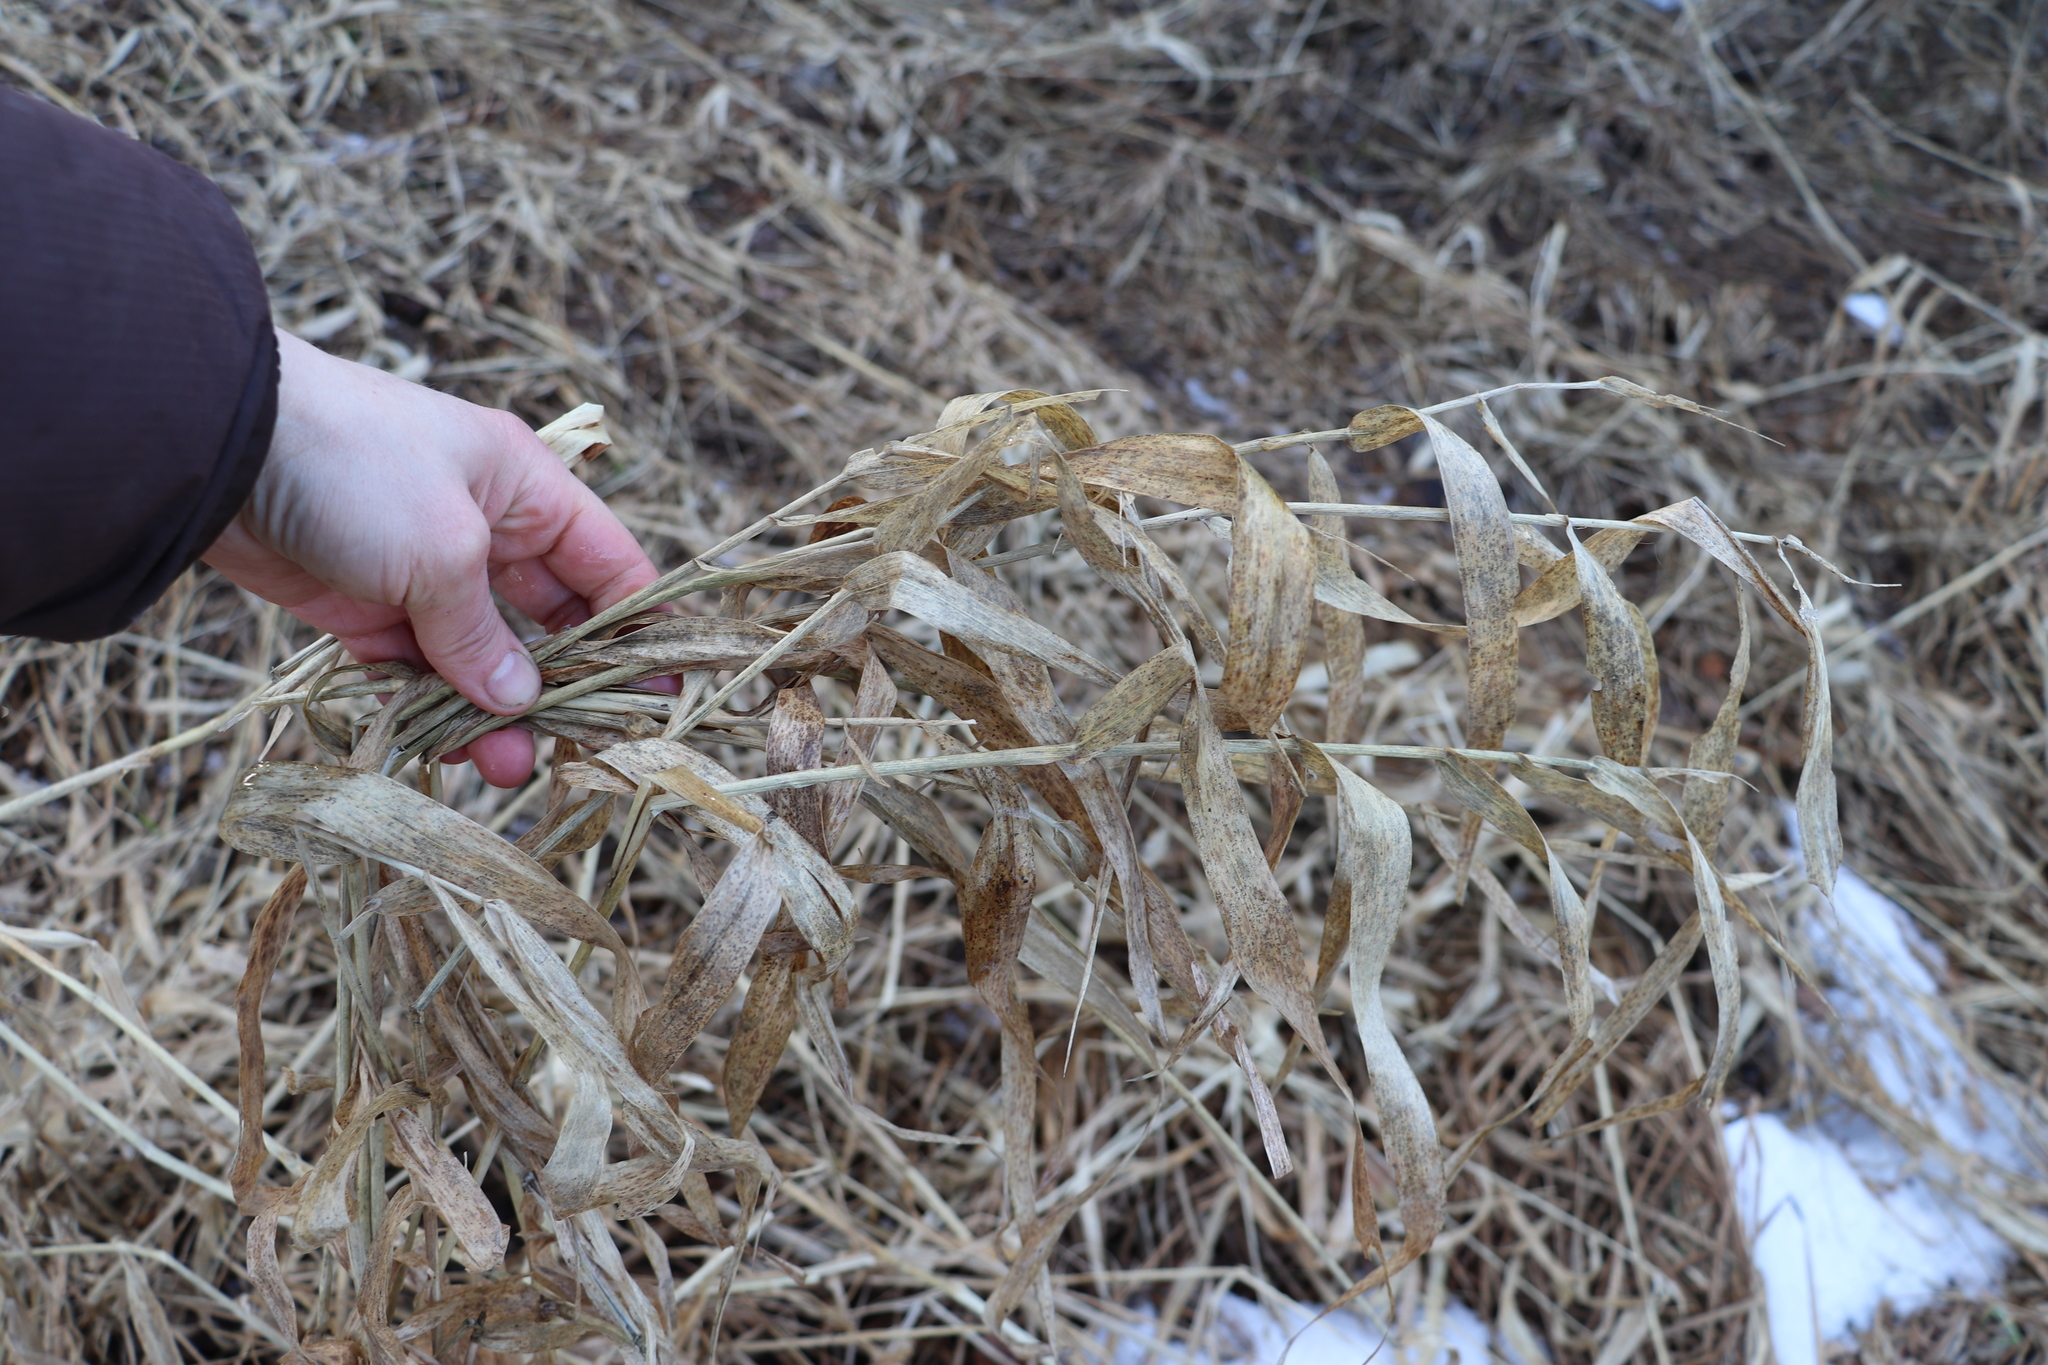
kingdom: Plantae
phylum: Tracheophyta
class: Liliopsida
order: Poales
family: Poaceae
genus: Phalaris
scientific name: Phalaris arundinacea
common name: Reed canary-grass
